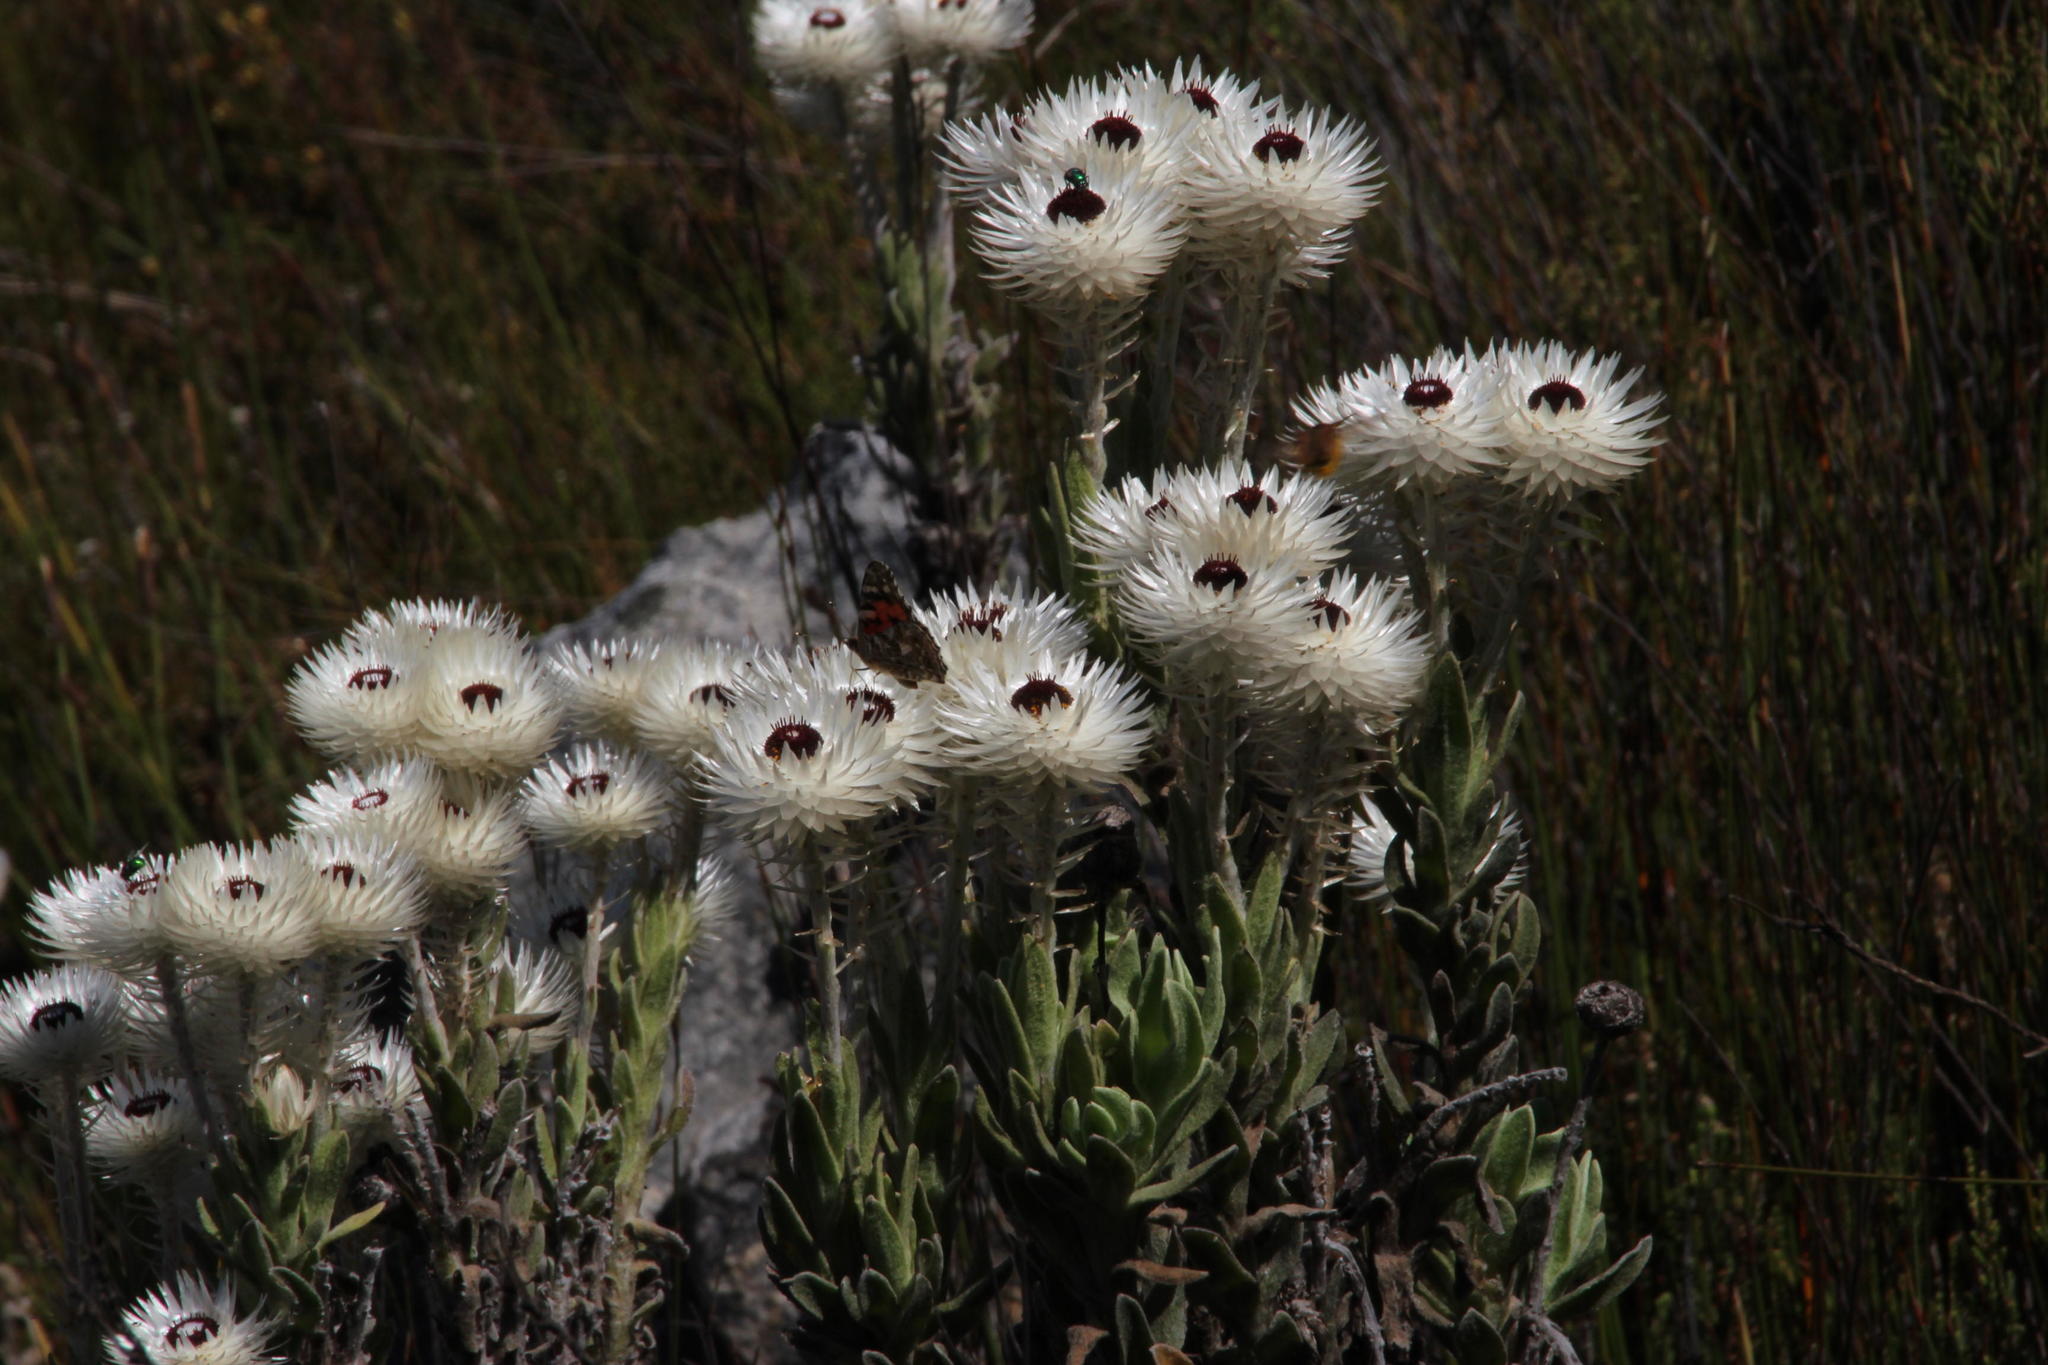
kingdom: Plantae
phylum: Tracheophyta
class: Magnoliopsida
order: Asterales
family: Asteraceae
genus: Syncarpha
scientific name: Syncarpha vestita
